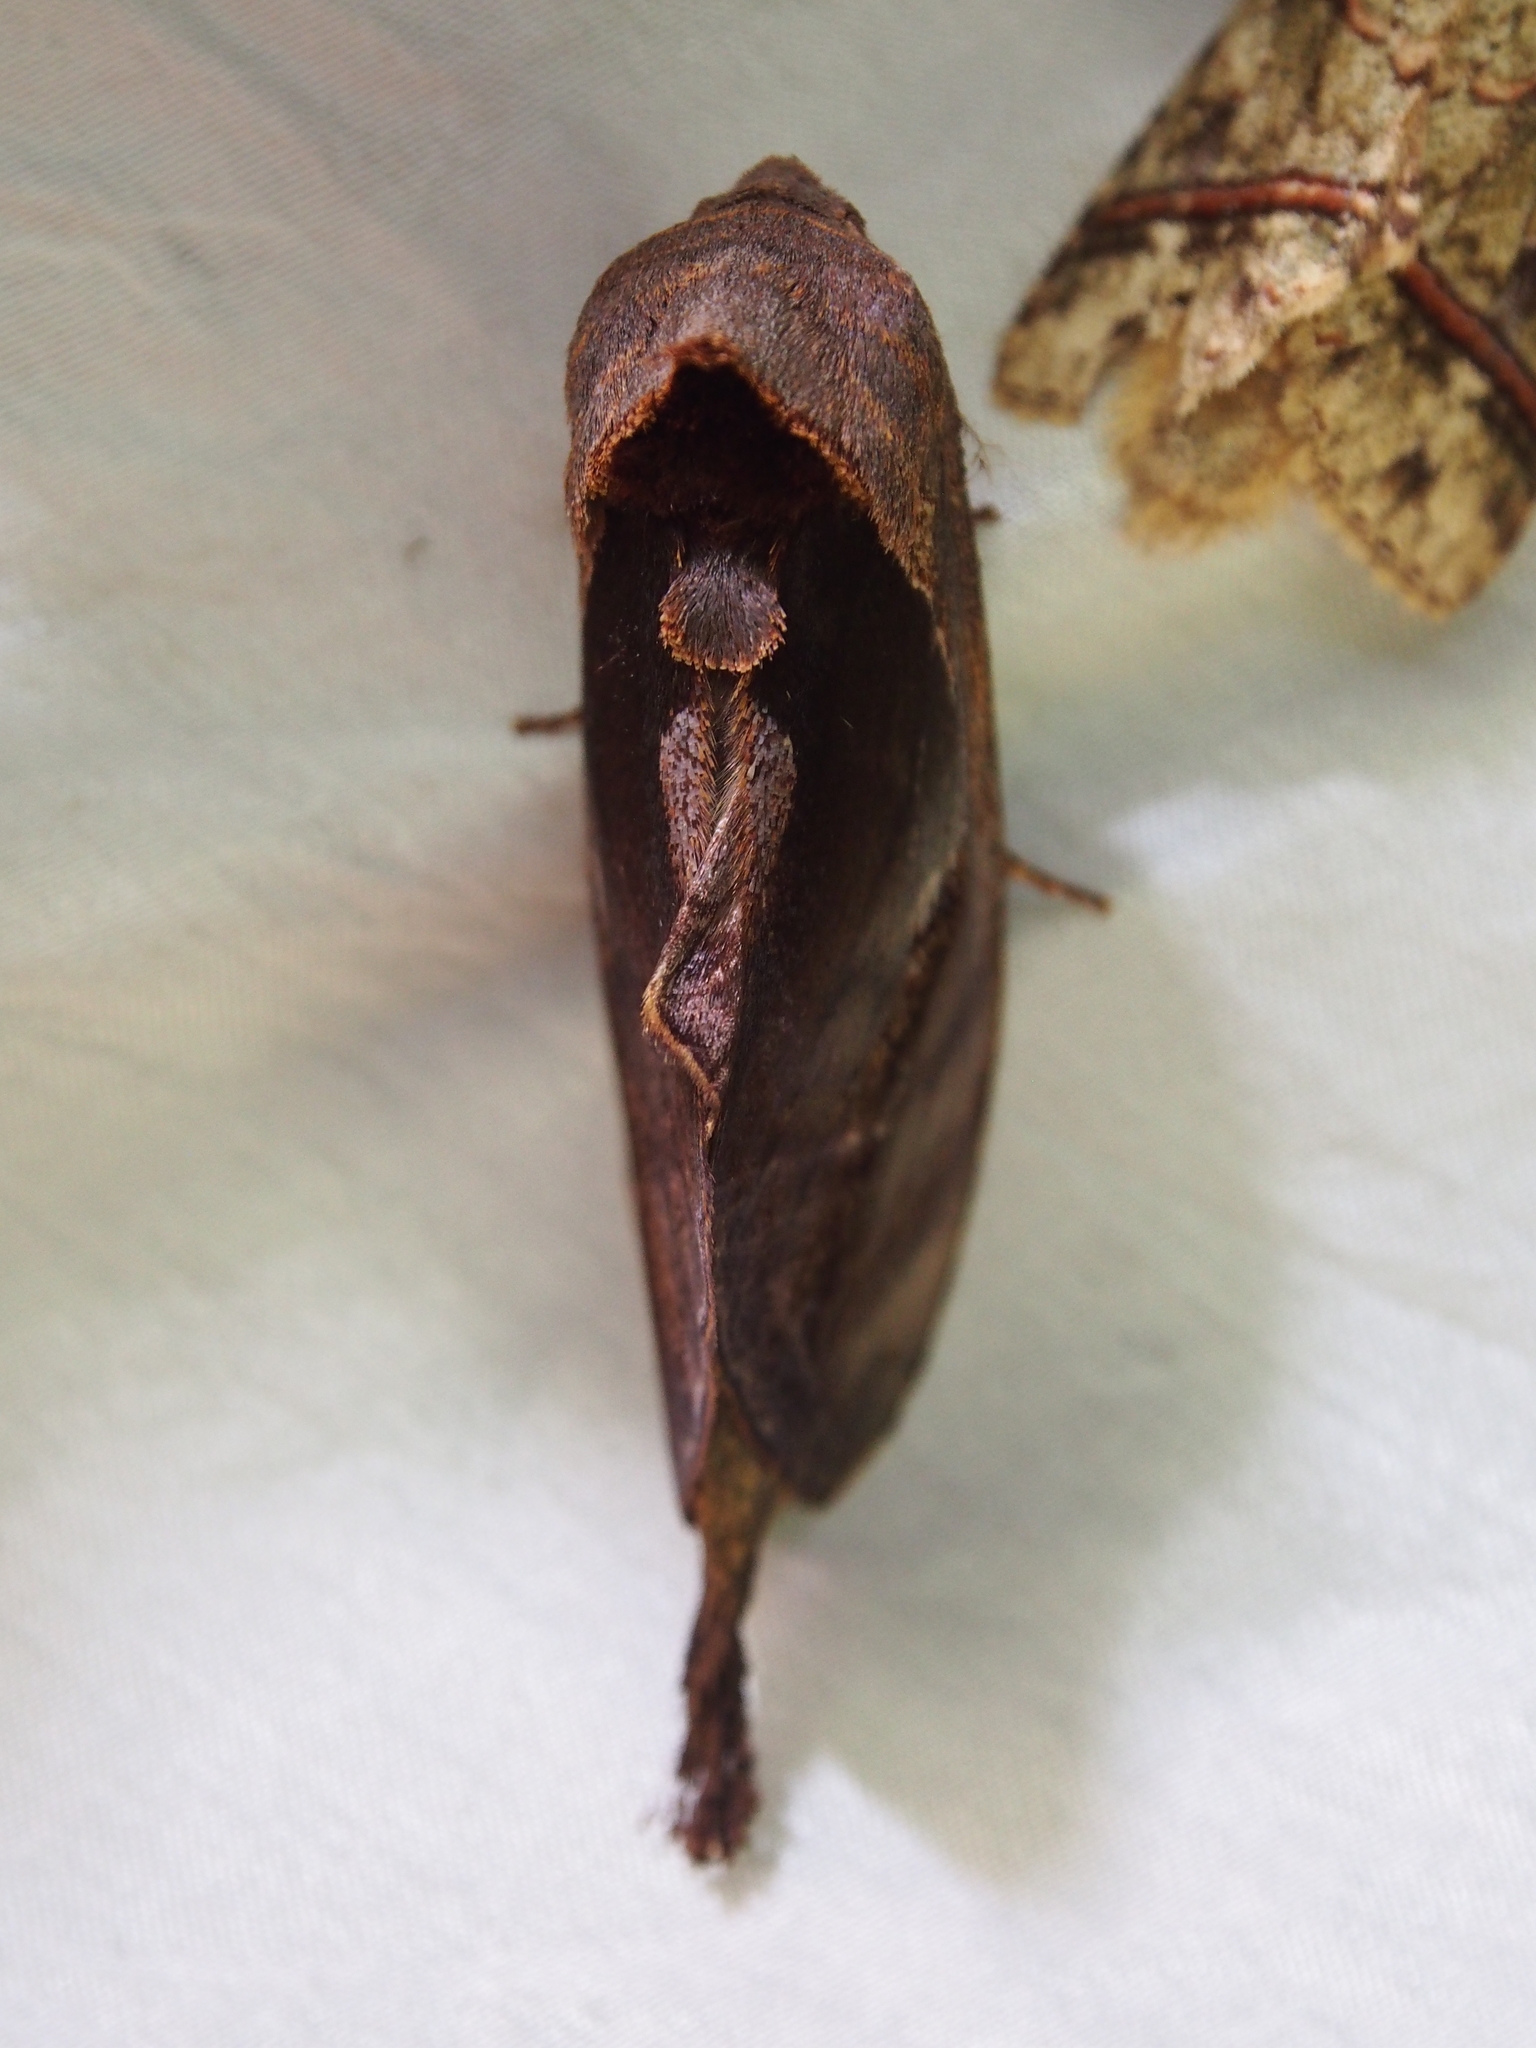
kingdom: Animalia
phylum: Arthropoda
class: Insecta
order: Lepidoptera
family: Notodontidae
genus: Crinodes
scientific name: Crinodes schausi
